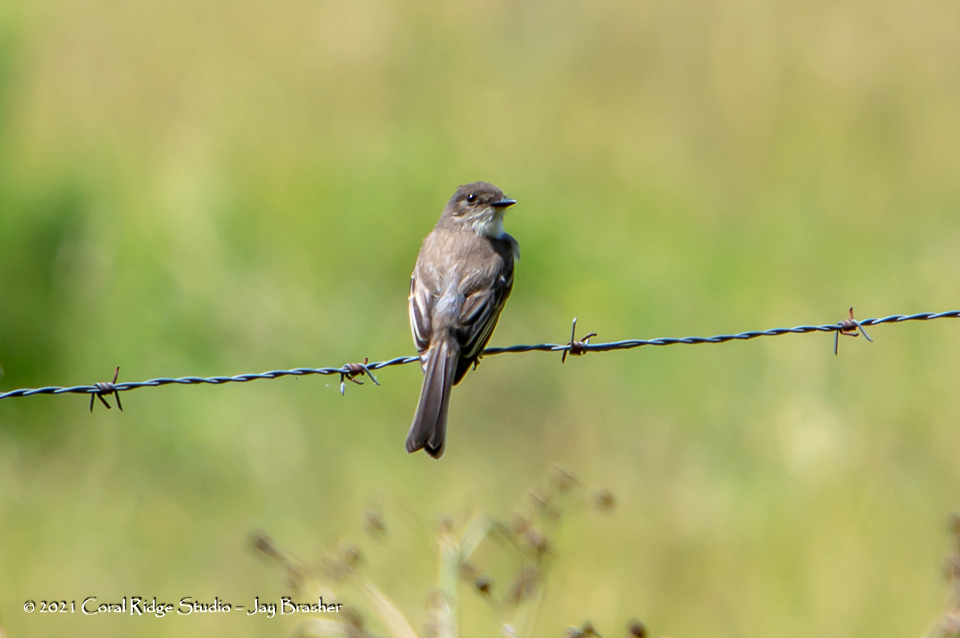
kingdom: Animalia
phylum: Chordata
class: Aves
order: Passeriformes
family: Tyrannidae
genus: Sayornis
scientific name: Sayornis phoebe
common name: Eastern phoebe
